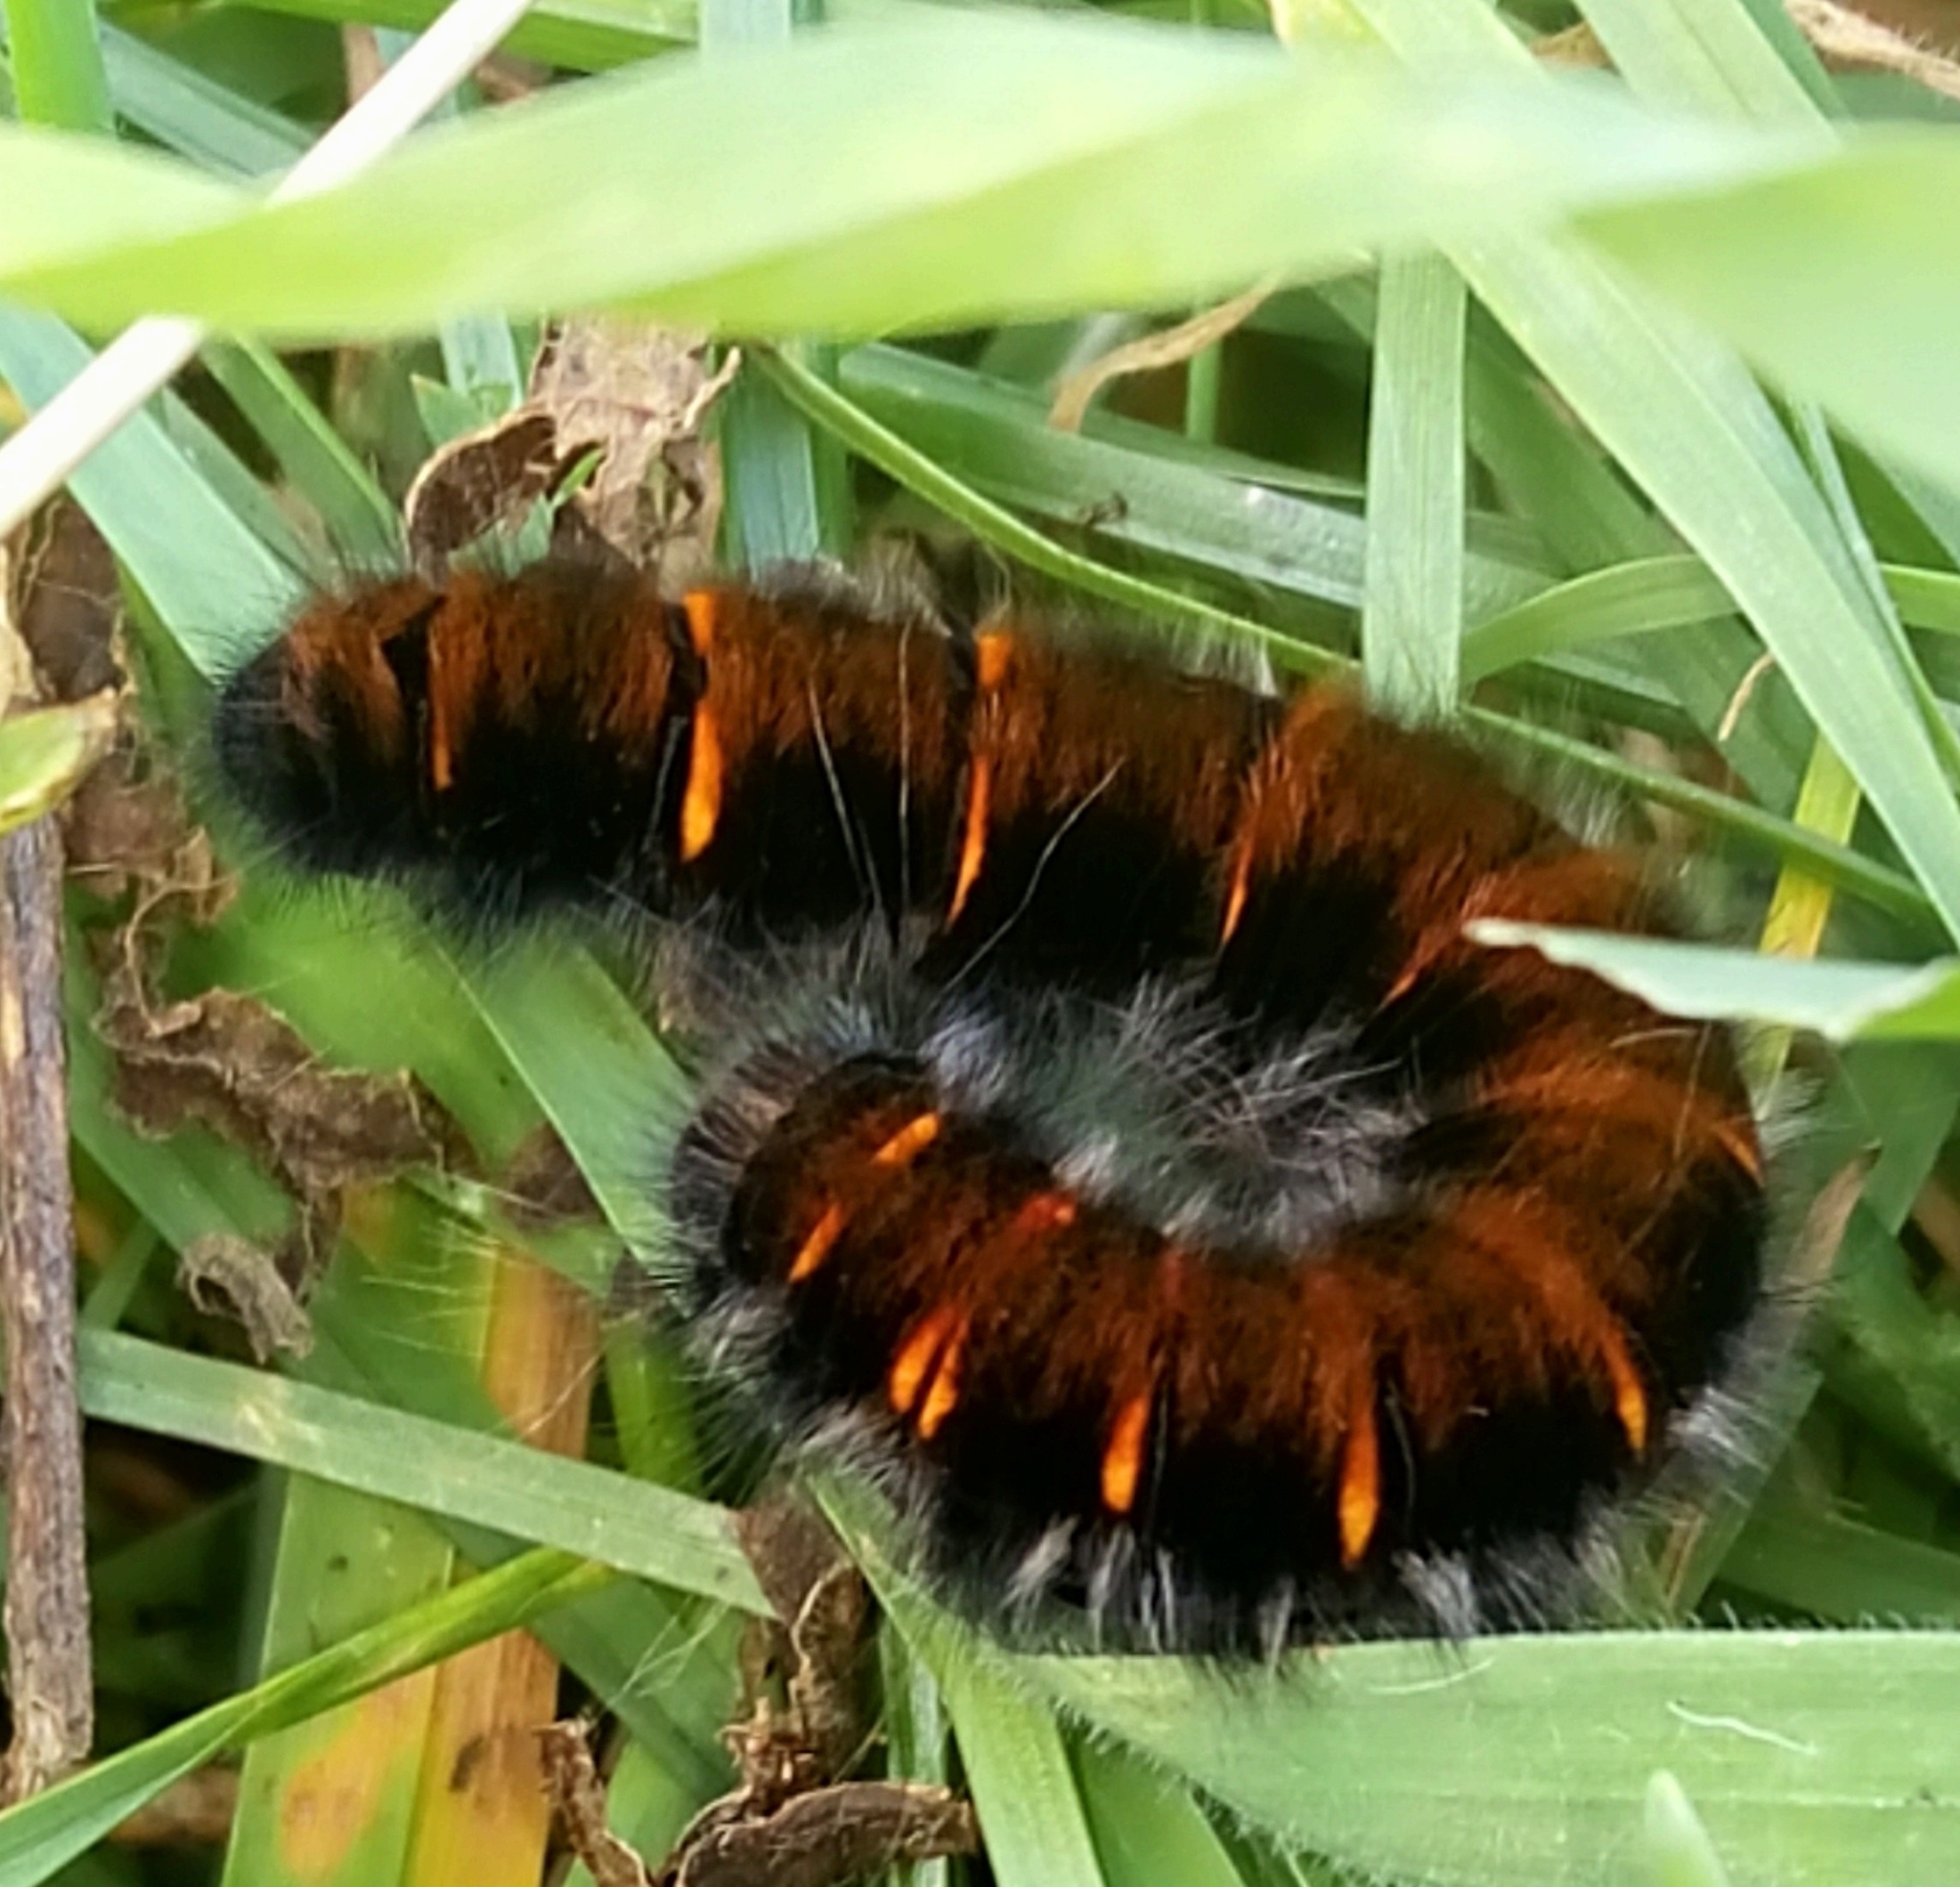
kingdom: Animalia
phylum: Arthropoda
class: Insecta
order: Lepidoptera
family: Lasiocampidae
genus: Macrothylacia
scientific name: Macrothylacia rubi
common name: Fox moth
